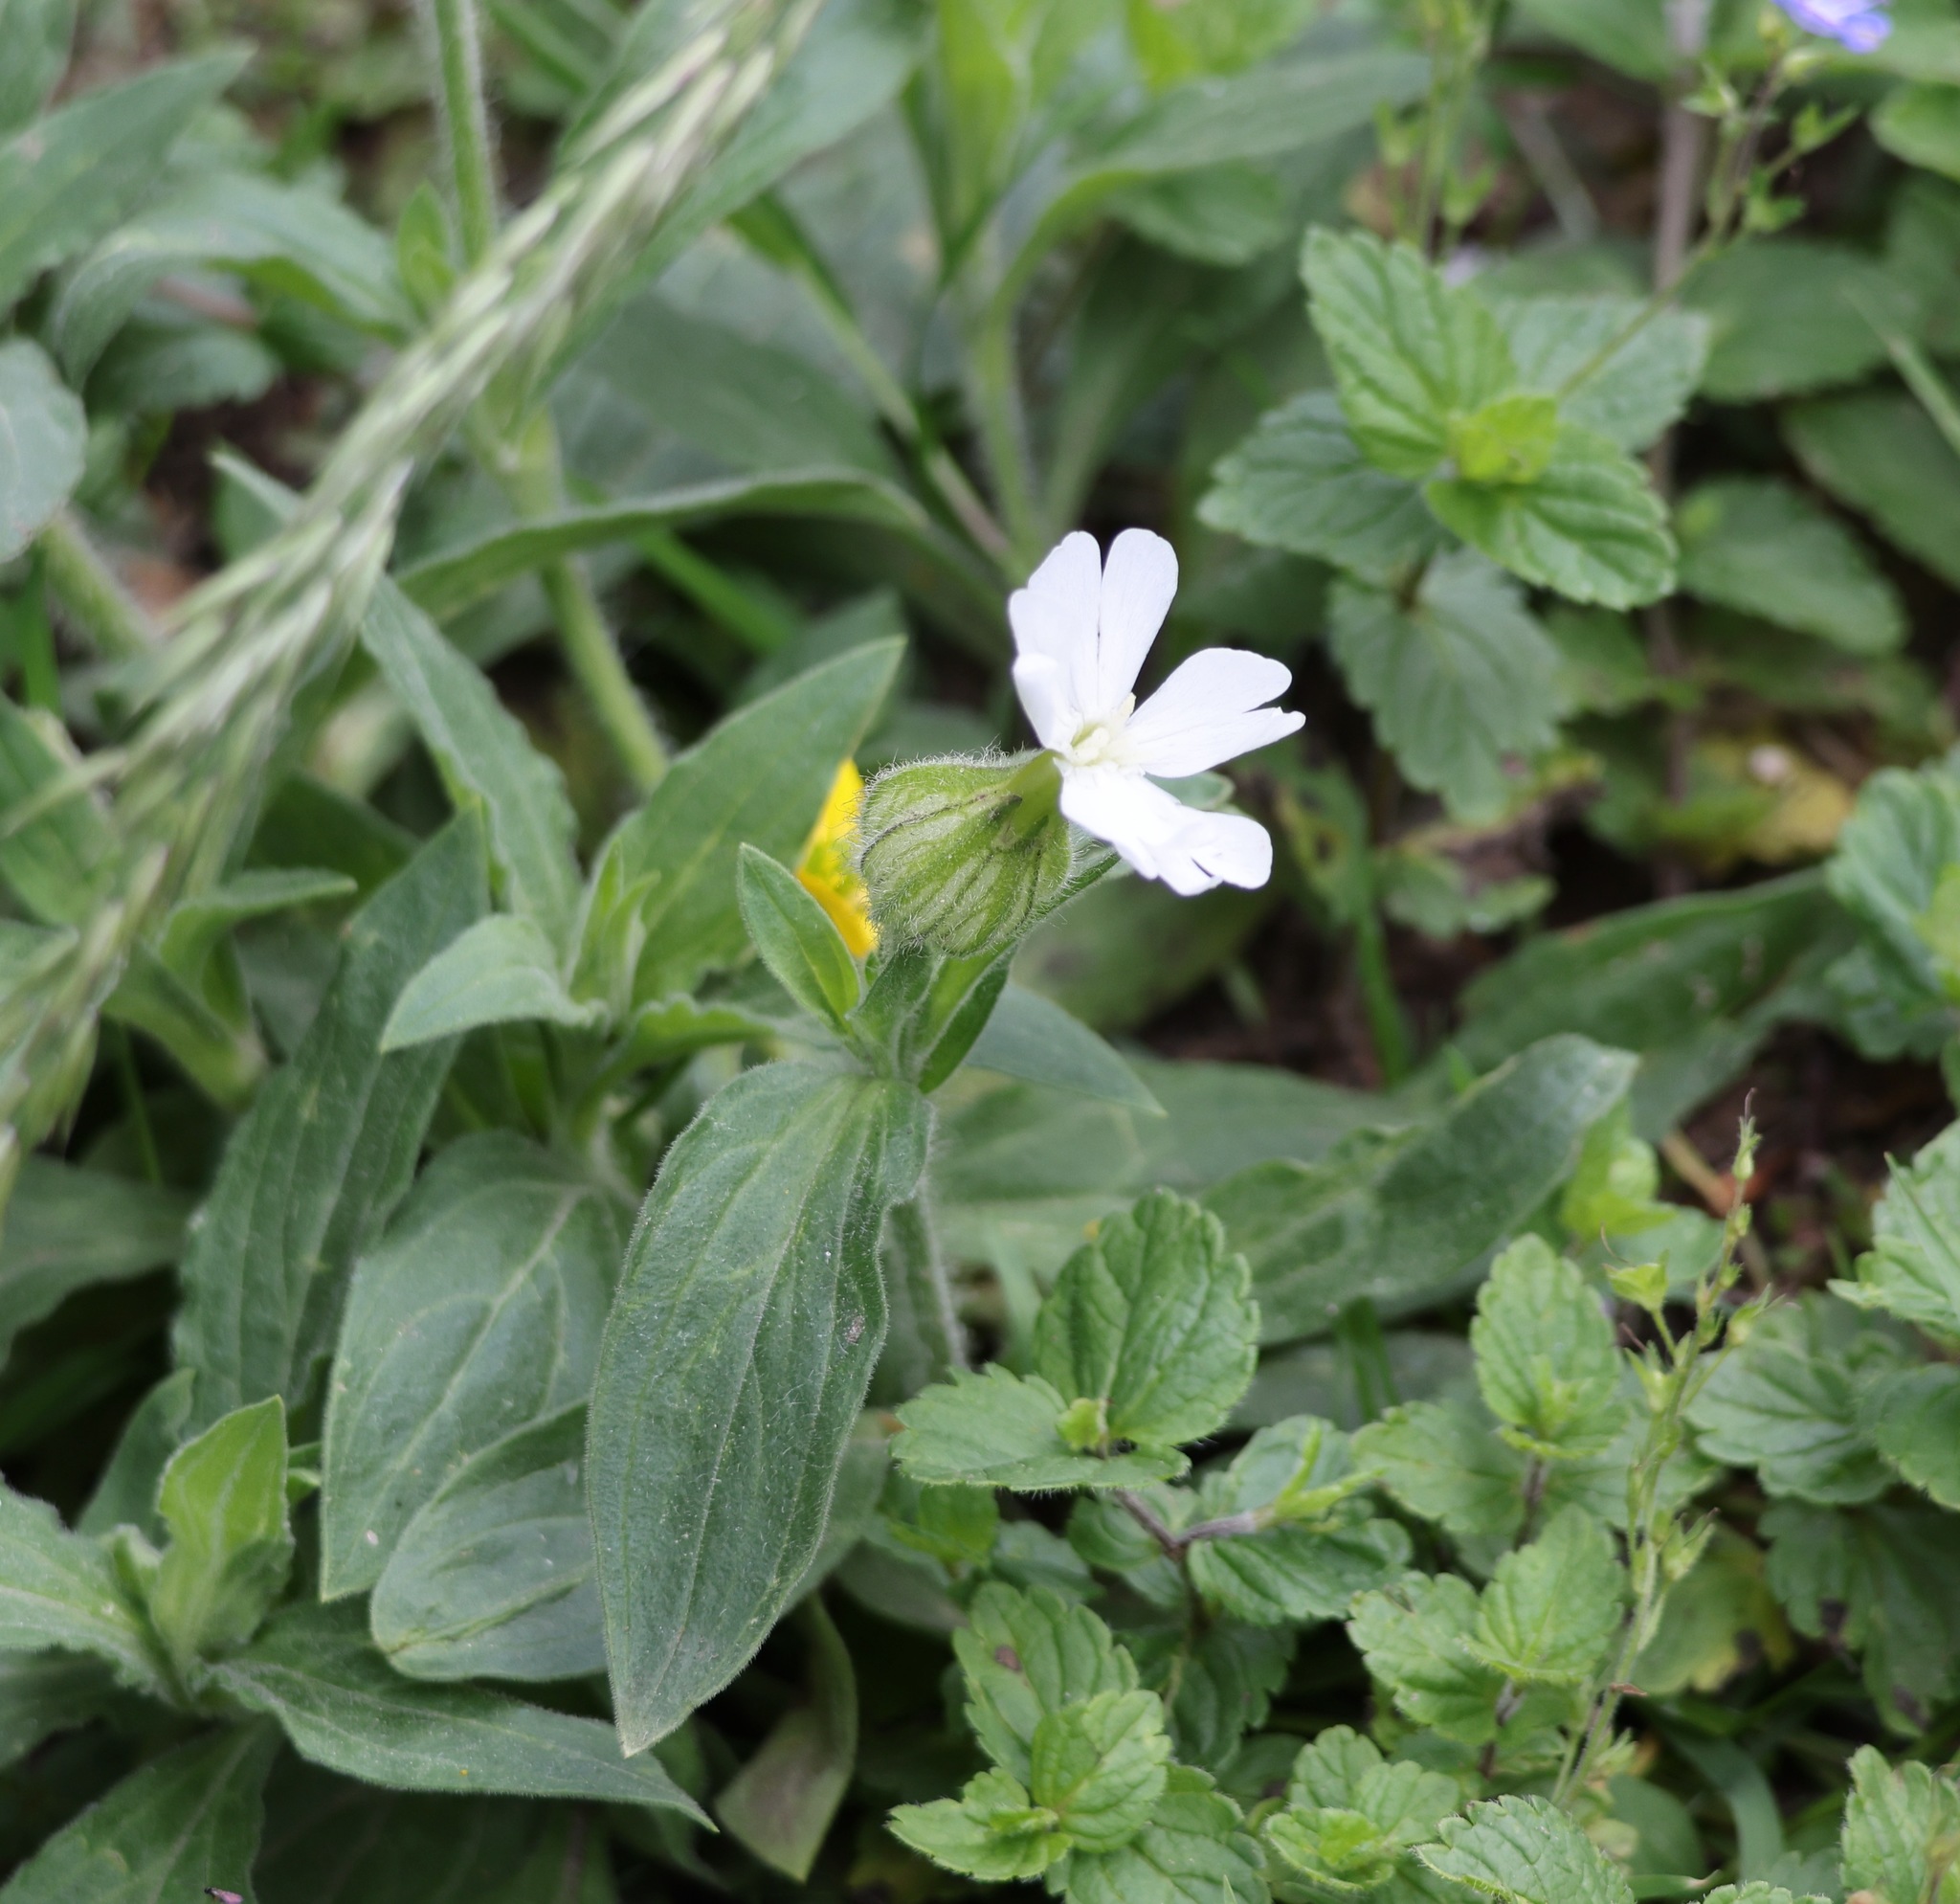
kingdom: Plantae
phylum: Tracheophyta
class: Magnoliopsida
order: Caryophyllales
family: Caryophyllaceae
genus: Silene
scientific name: Silene latifolia
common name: White campion
